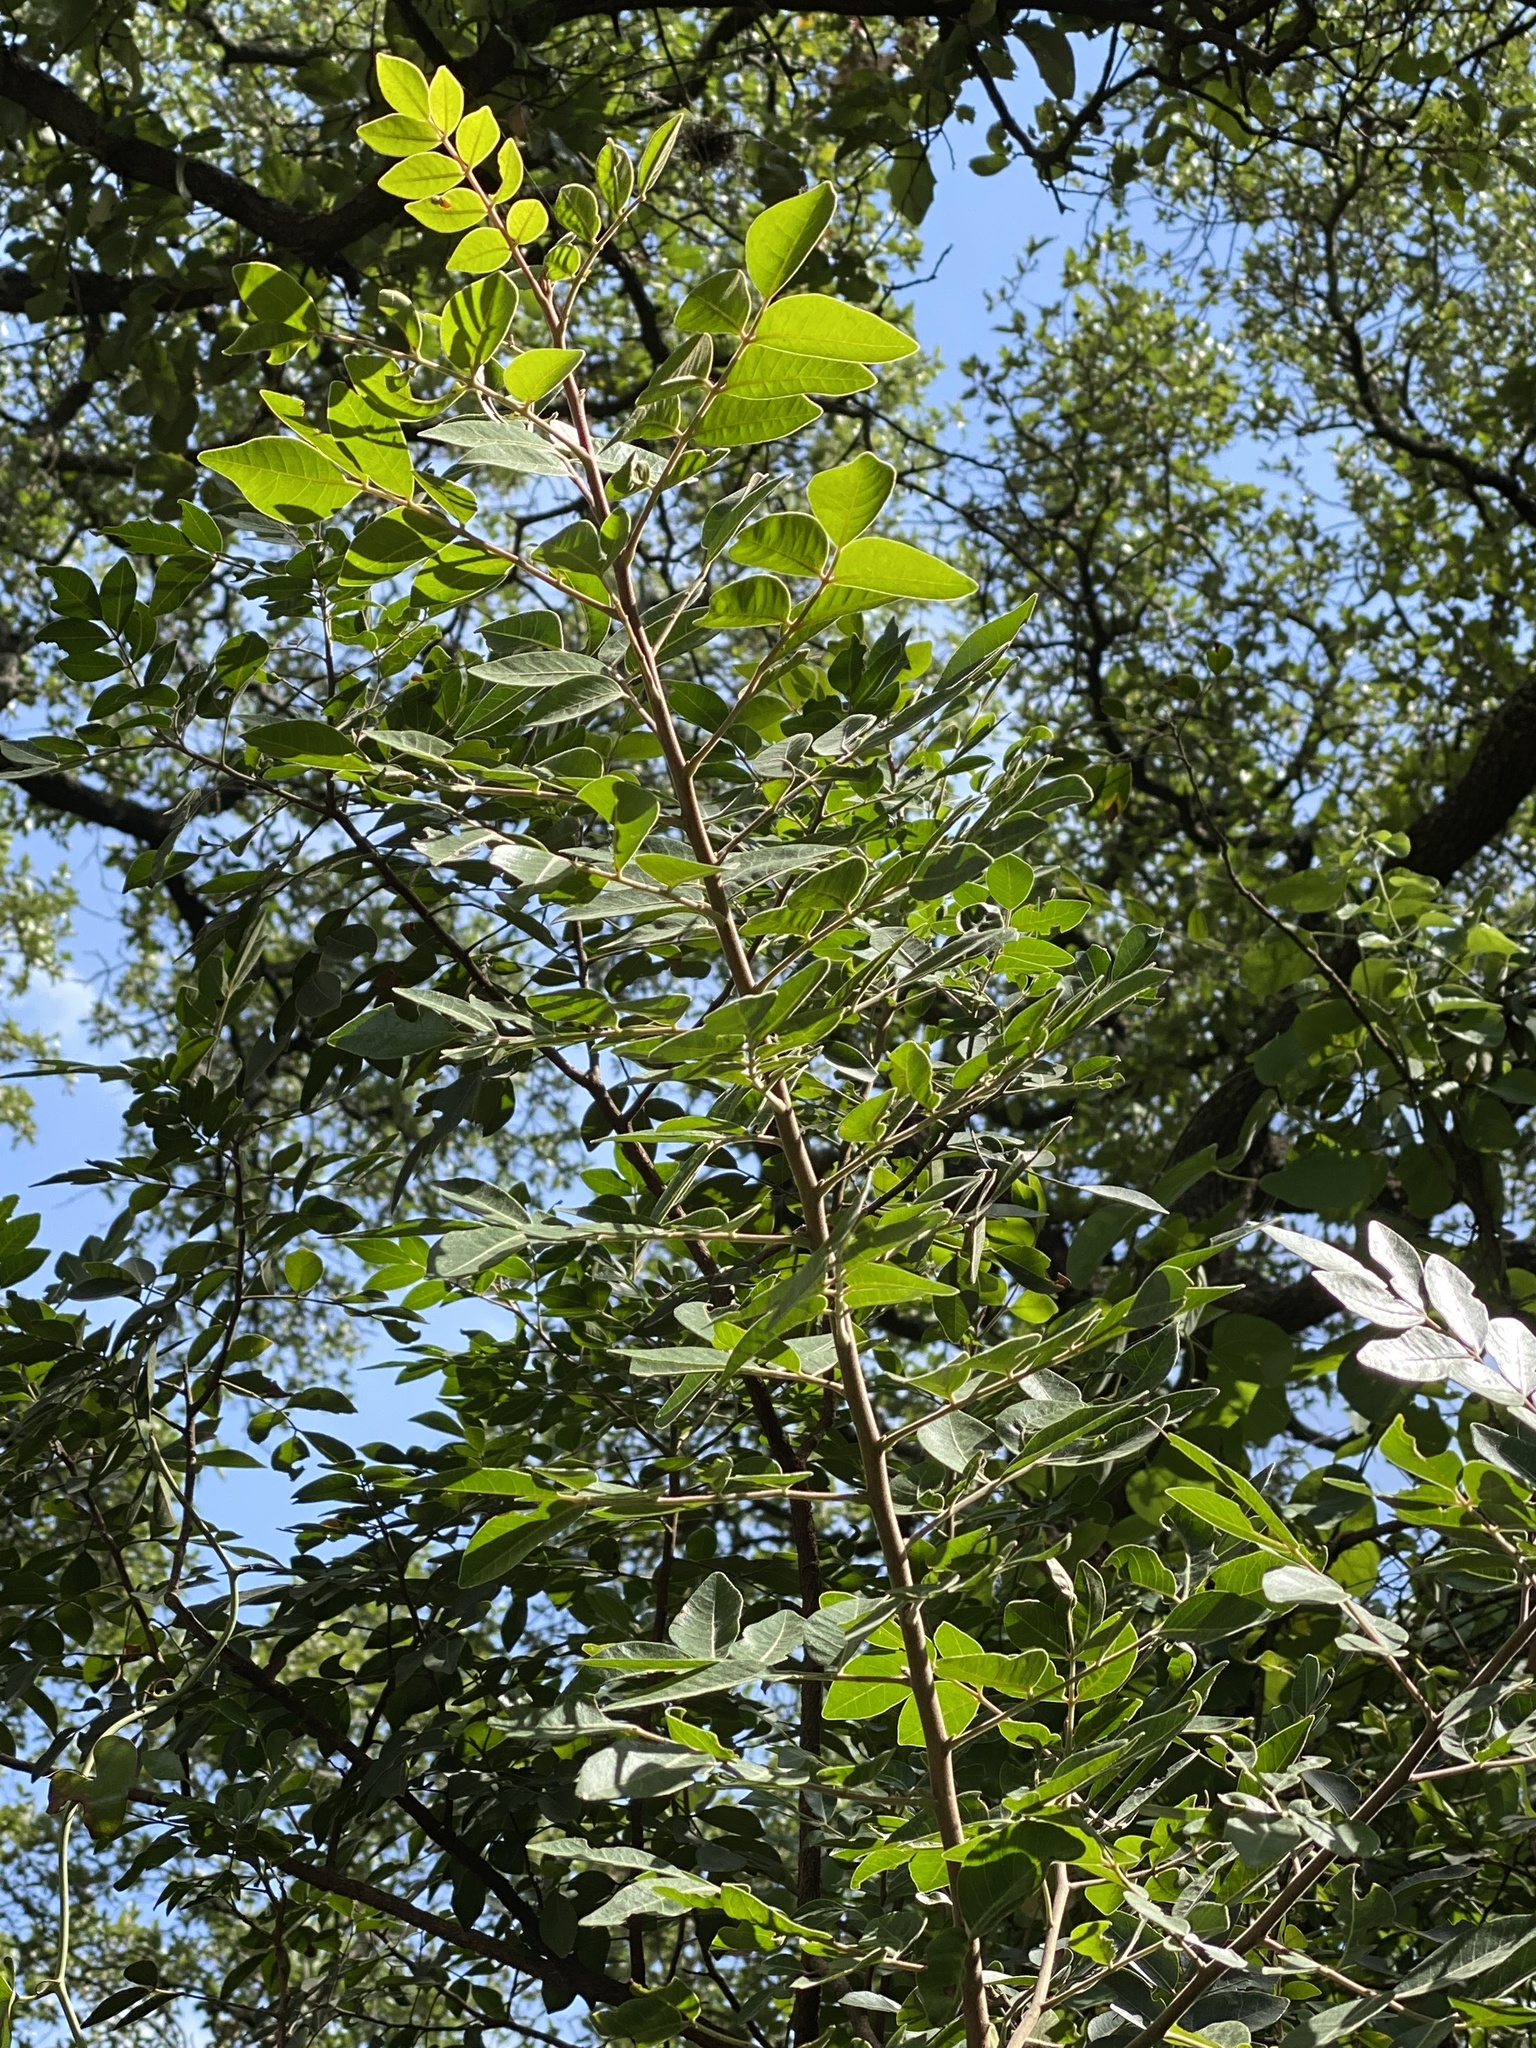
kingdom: Plantae
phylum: Tracheophyta
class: Magnoliopsida
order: Sapindales
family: Anacardiaceae
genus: Rhus
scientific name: Rhus virens
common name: Evergreen sumac
